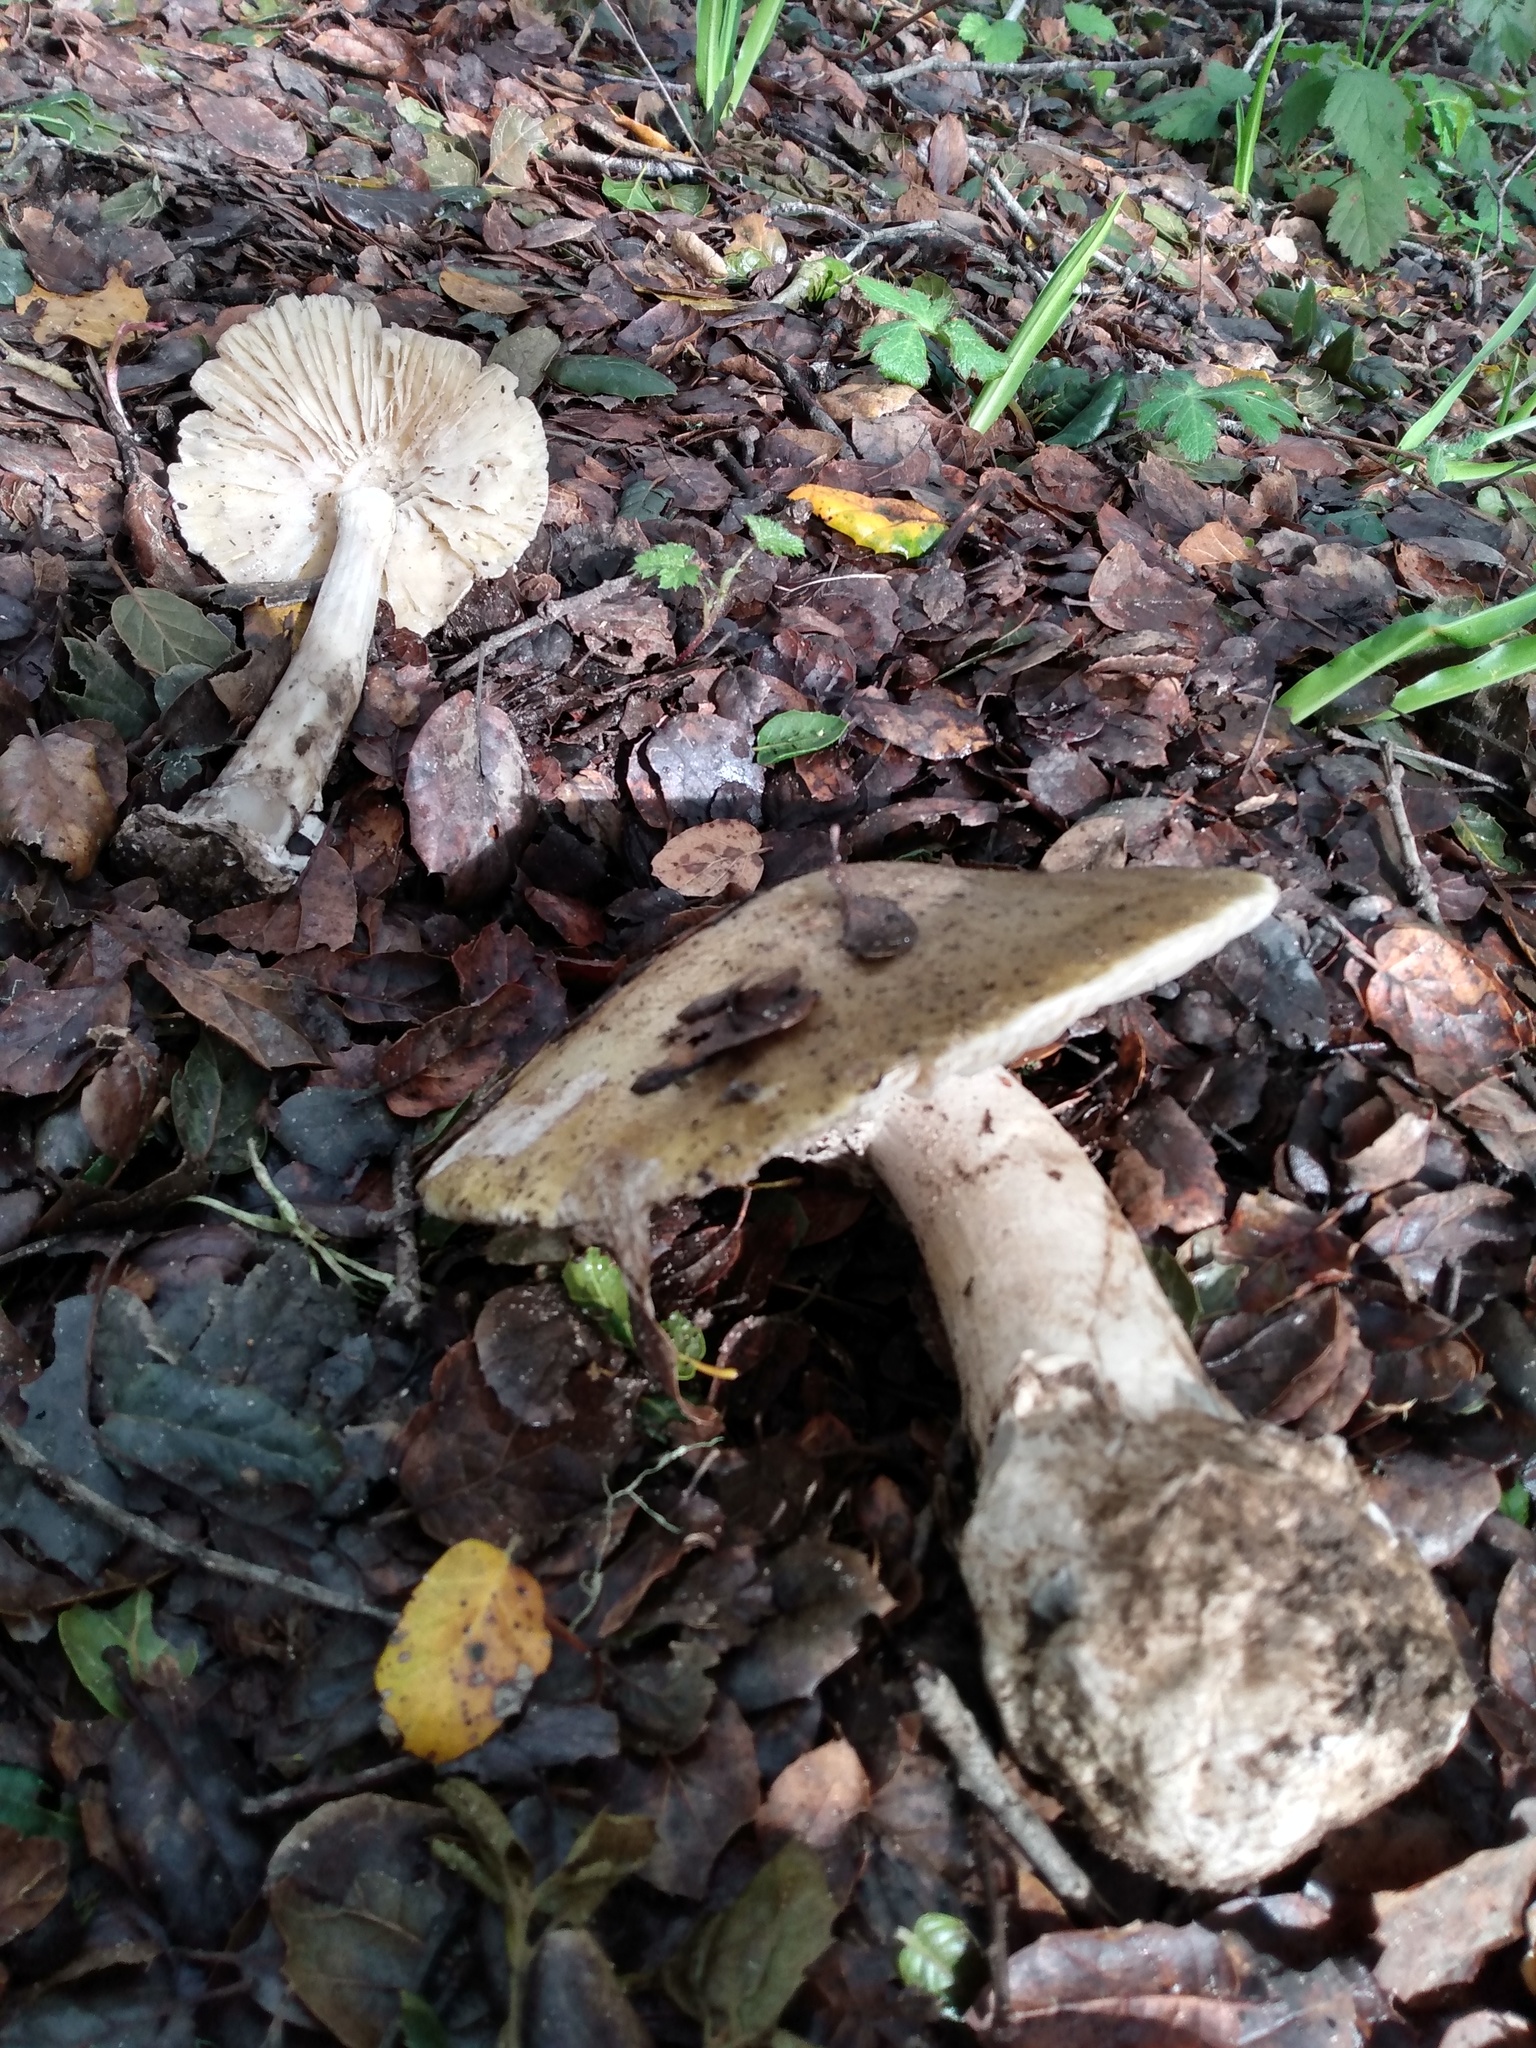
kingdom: Fungi
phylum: Basidiomycota
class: Agaricomycetes
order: Agaricales
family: Amanitaceae
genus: Amanita
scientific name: Amanita phalloides
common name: Death cap
